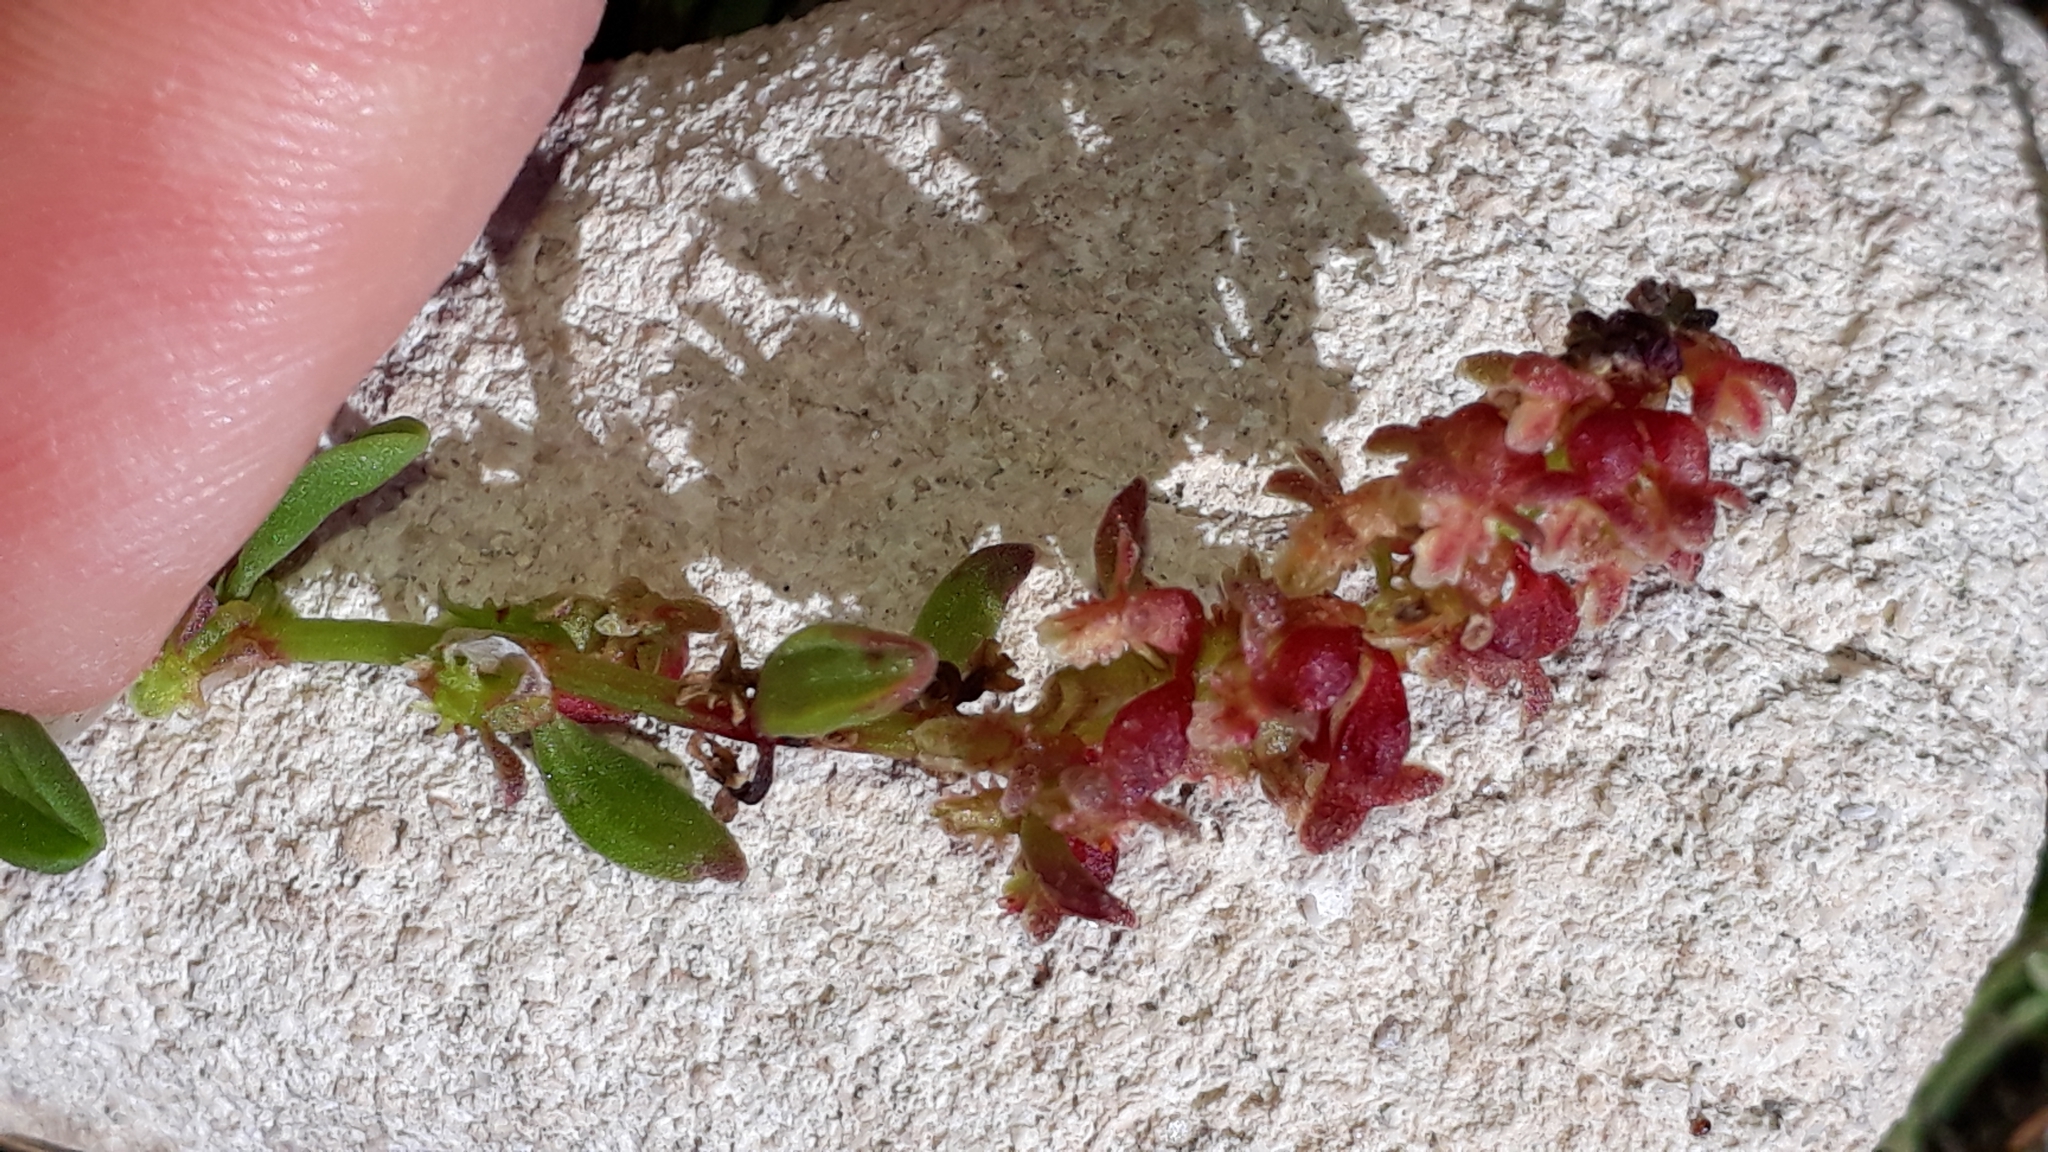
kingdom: Plantae
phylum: Tracheophyta
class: Magnoliopsida
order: Caryophyllales
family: Polygonaceae
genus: Rumex
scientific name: Rumex bucephalophorus
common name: Red dock
